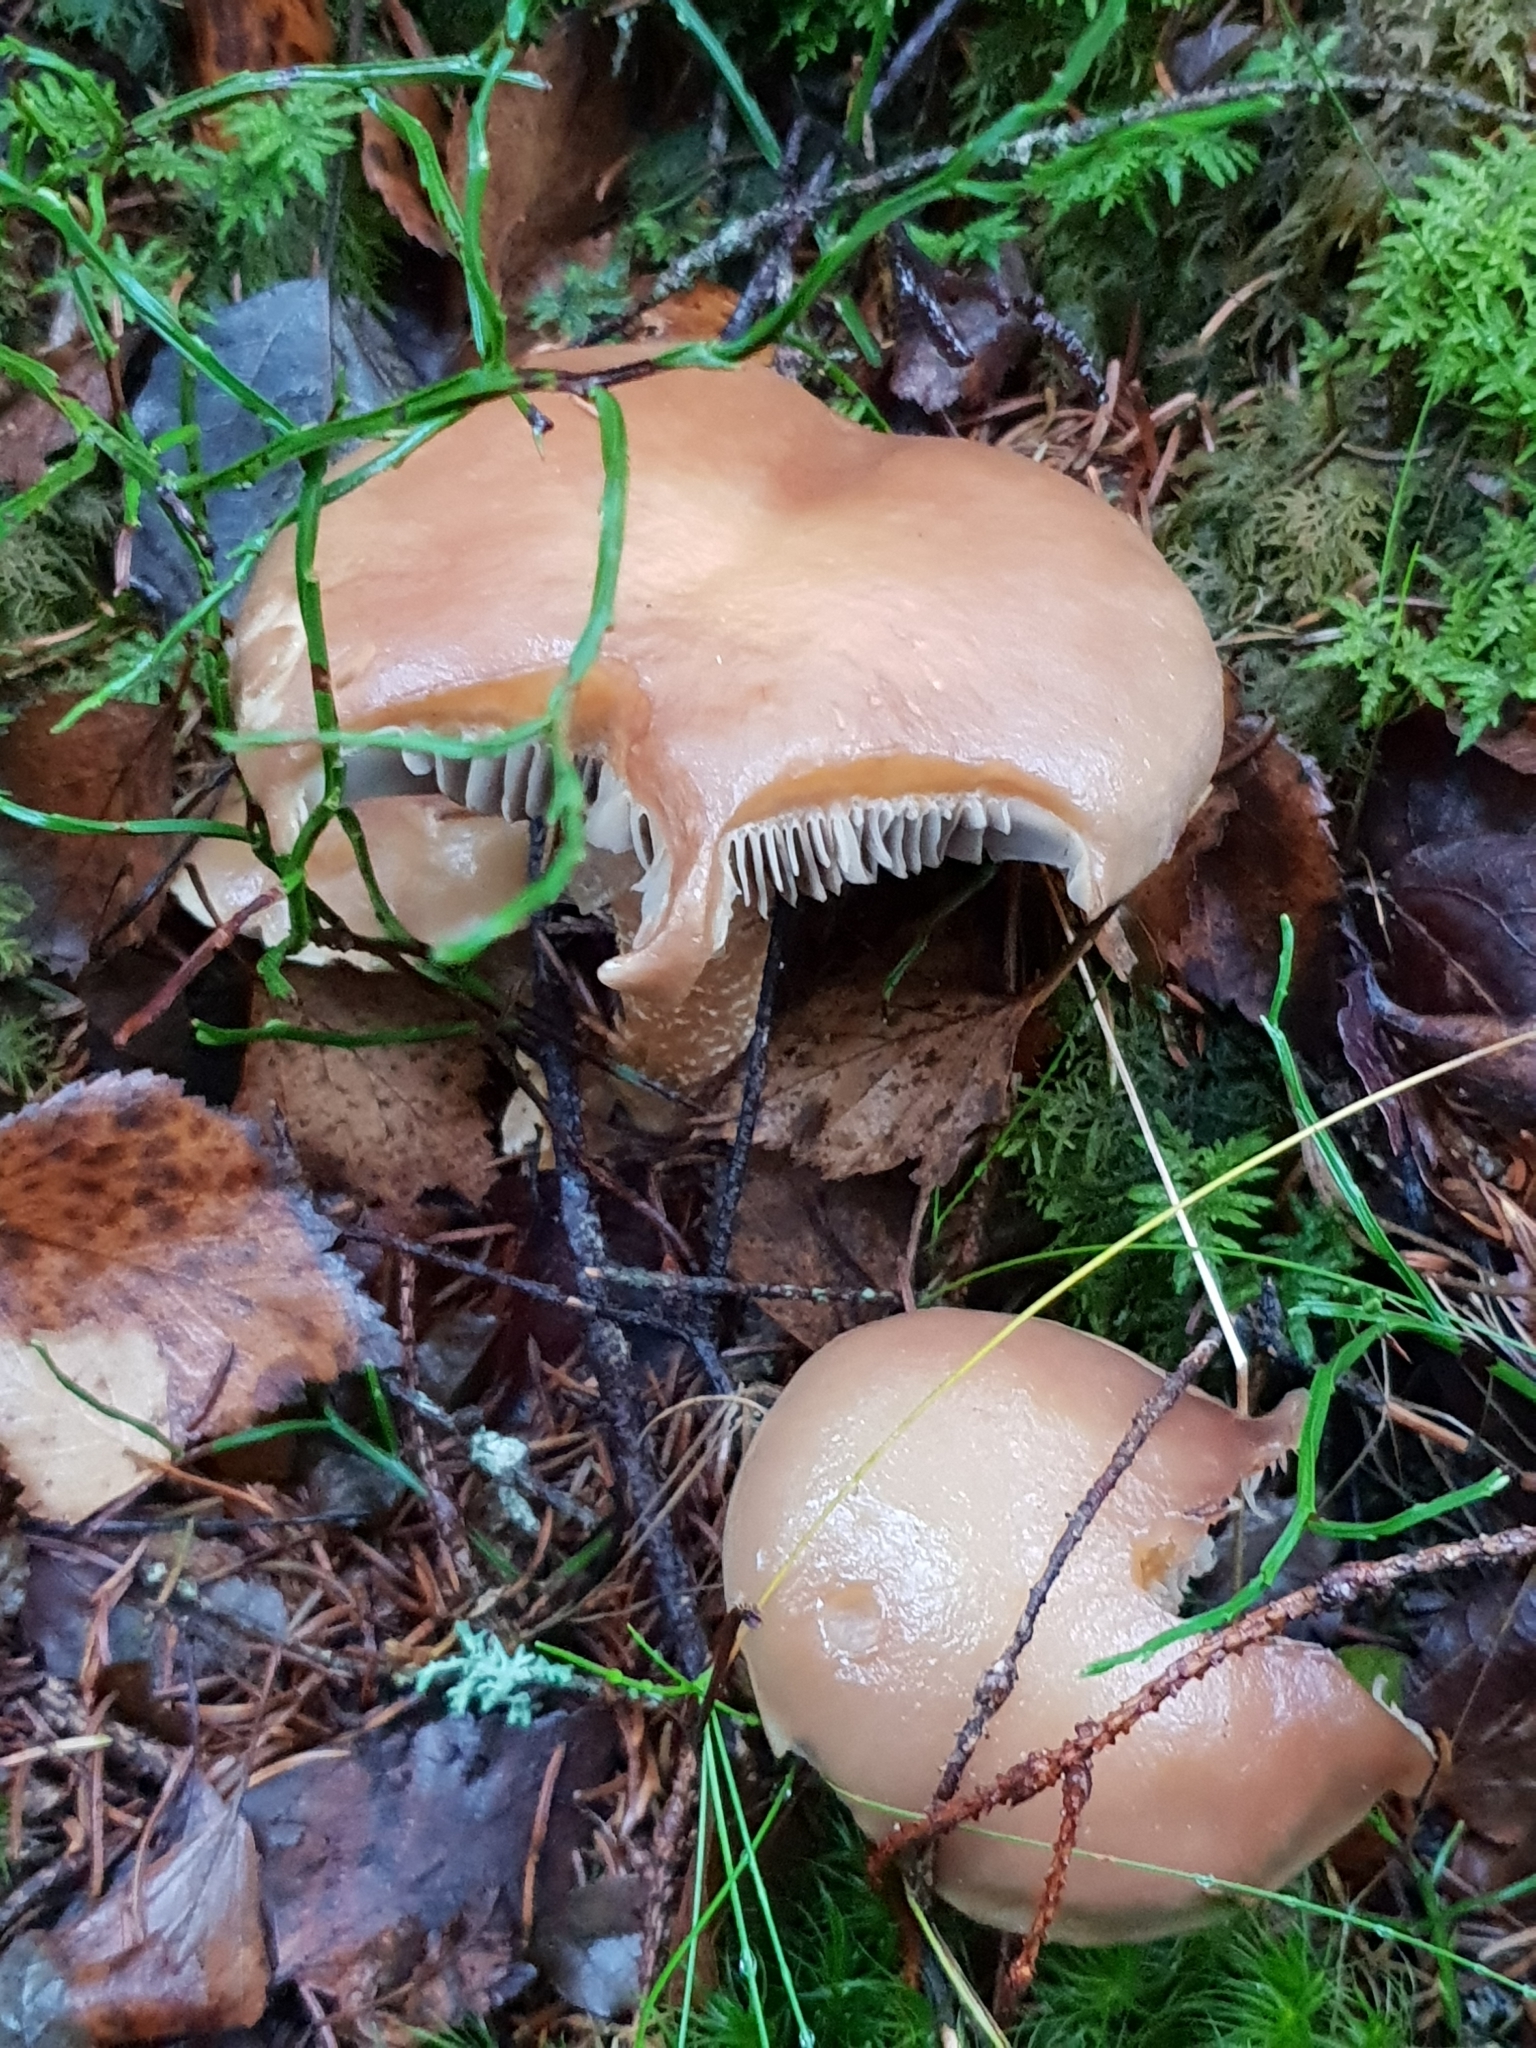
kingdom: Fungi
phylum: Basidiomycota
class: Agaricomycetes
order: Agaricales
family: Strophariaceae
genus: Stropharia
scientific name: Stropharia hornemannii
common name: Conifer roundhead
